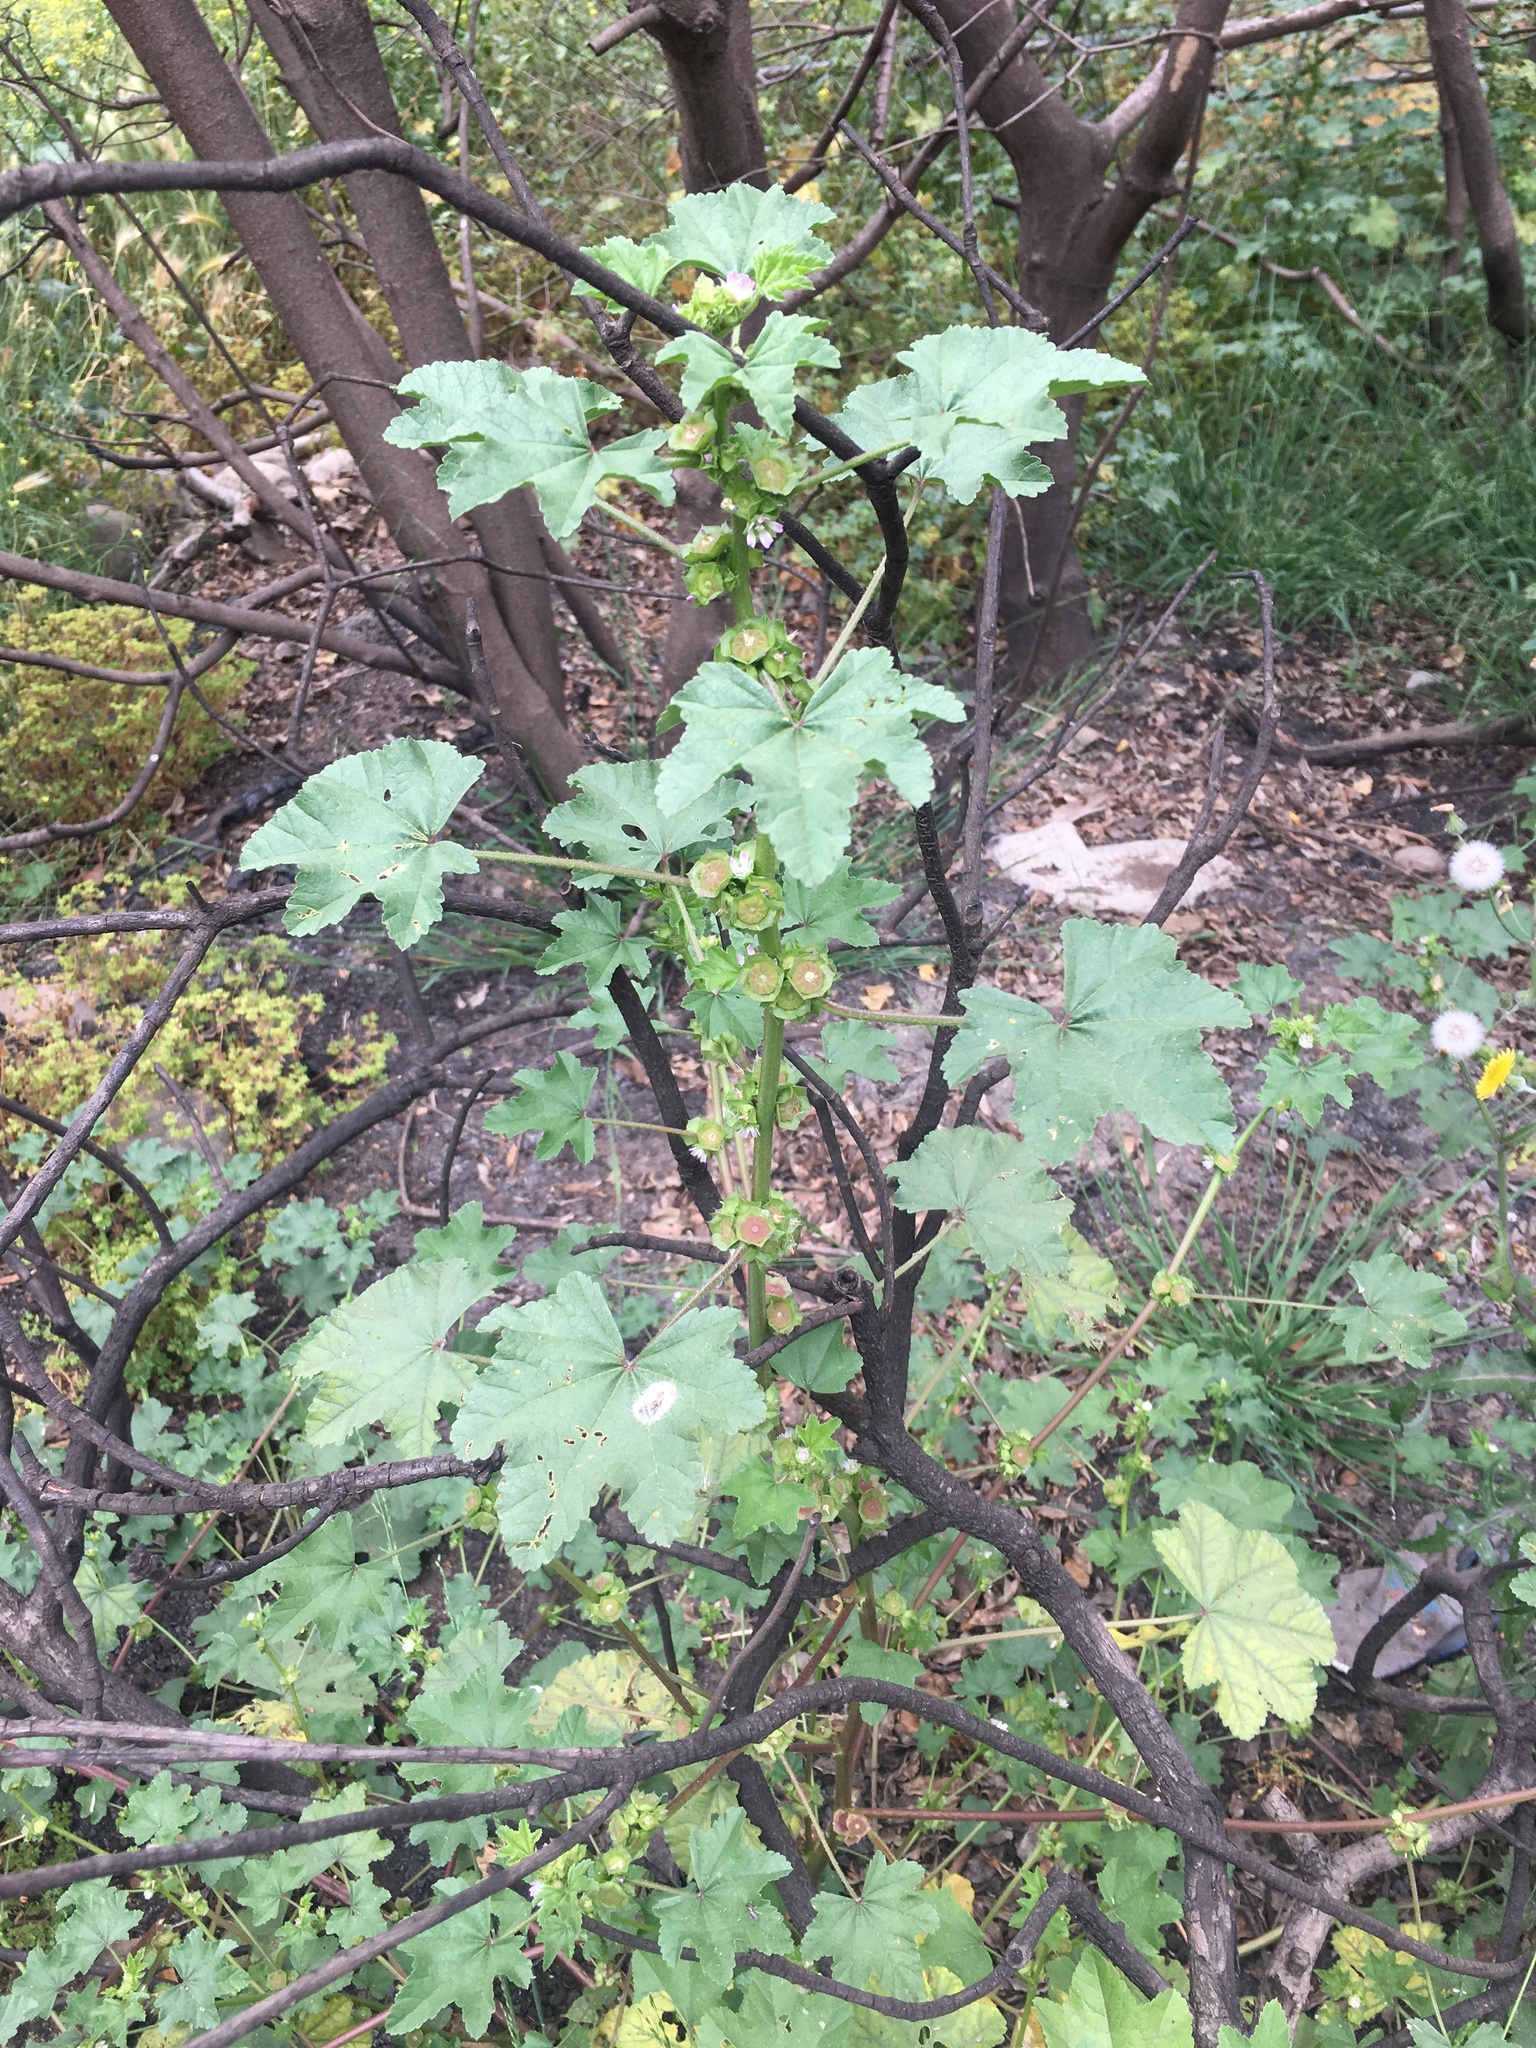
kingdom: Plantae
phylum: Tracheophyta
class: Magnoliopsida
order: Malvales
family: Malvaceae
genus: Malva
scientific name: Malva parviflora
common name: Least mallow
